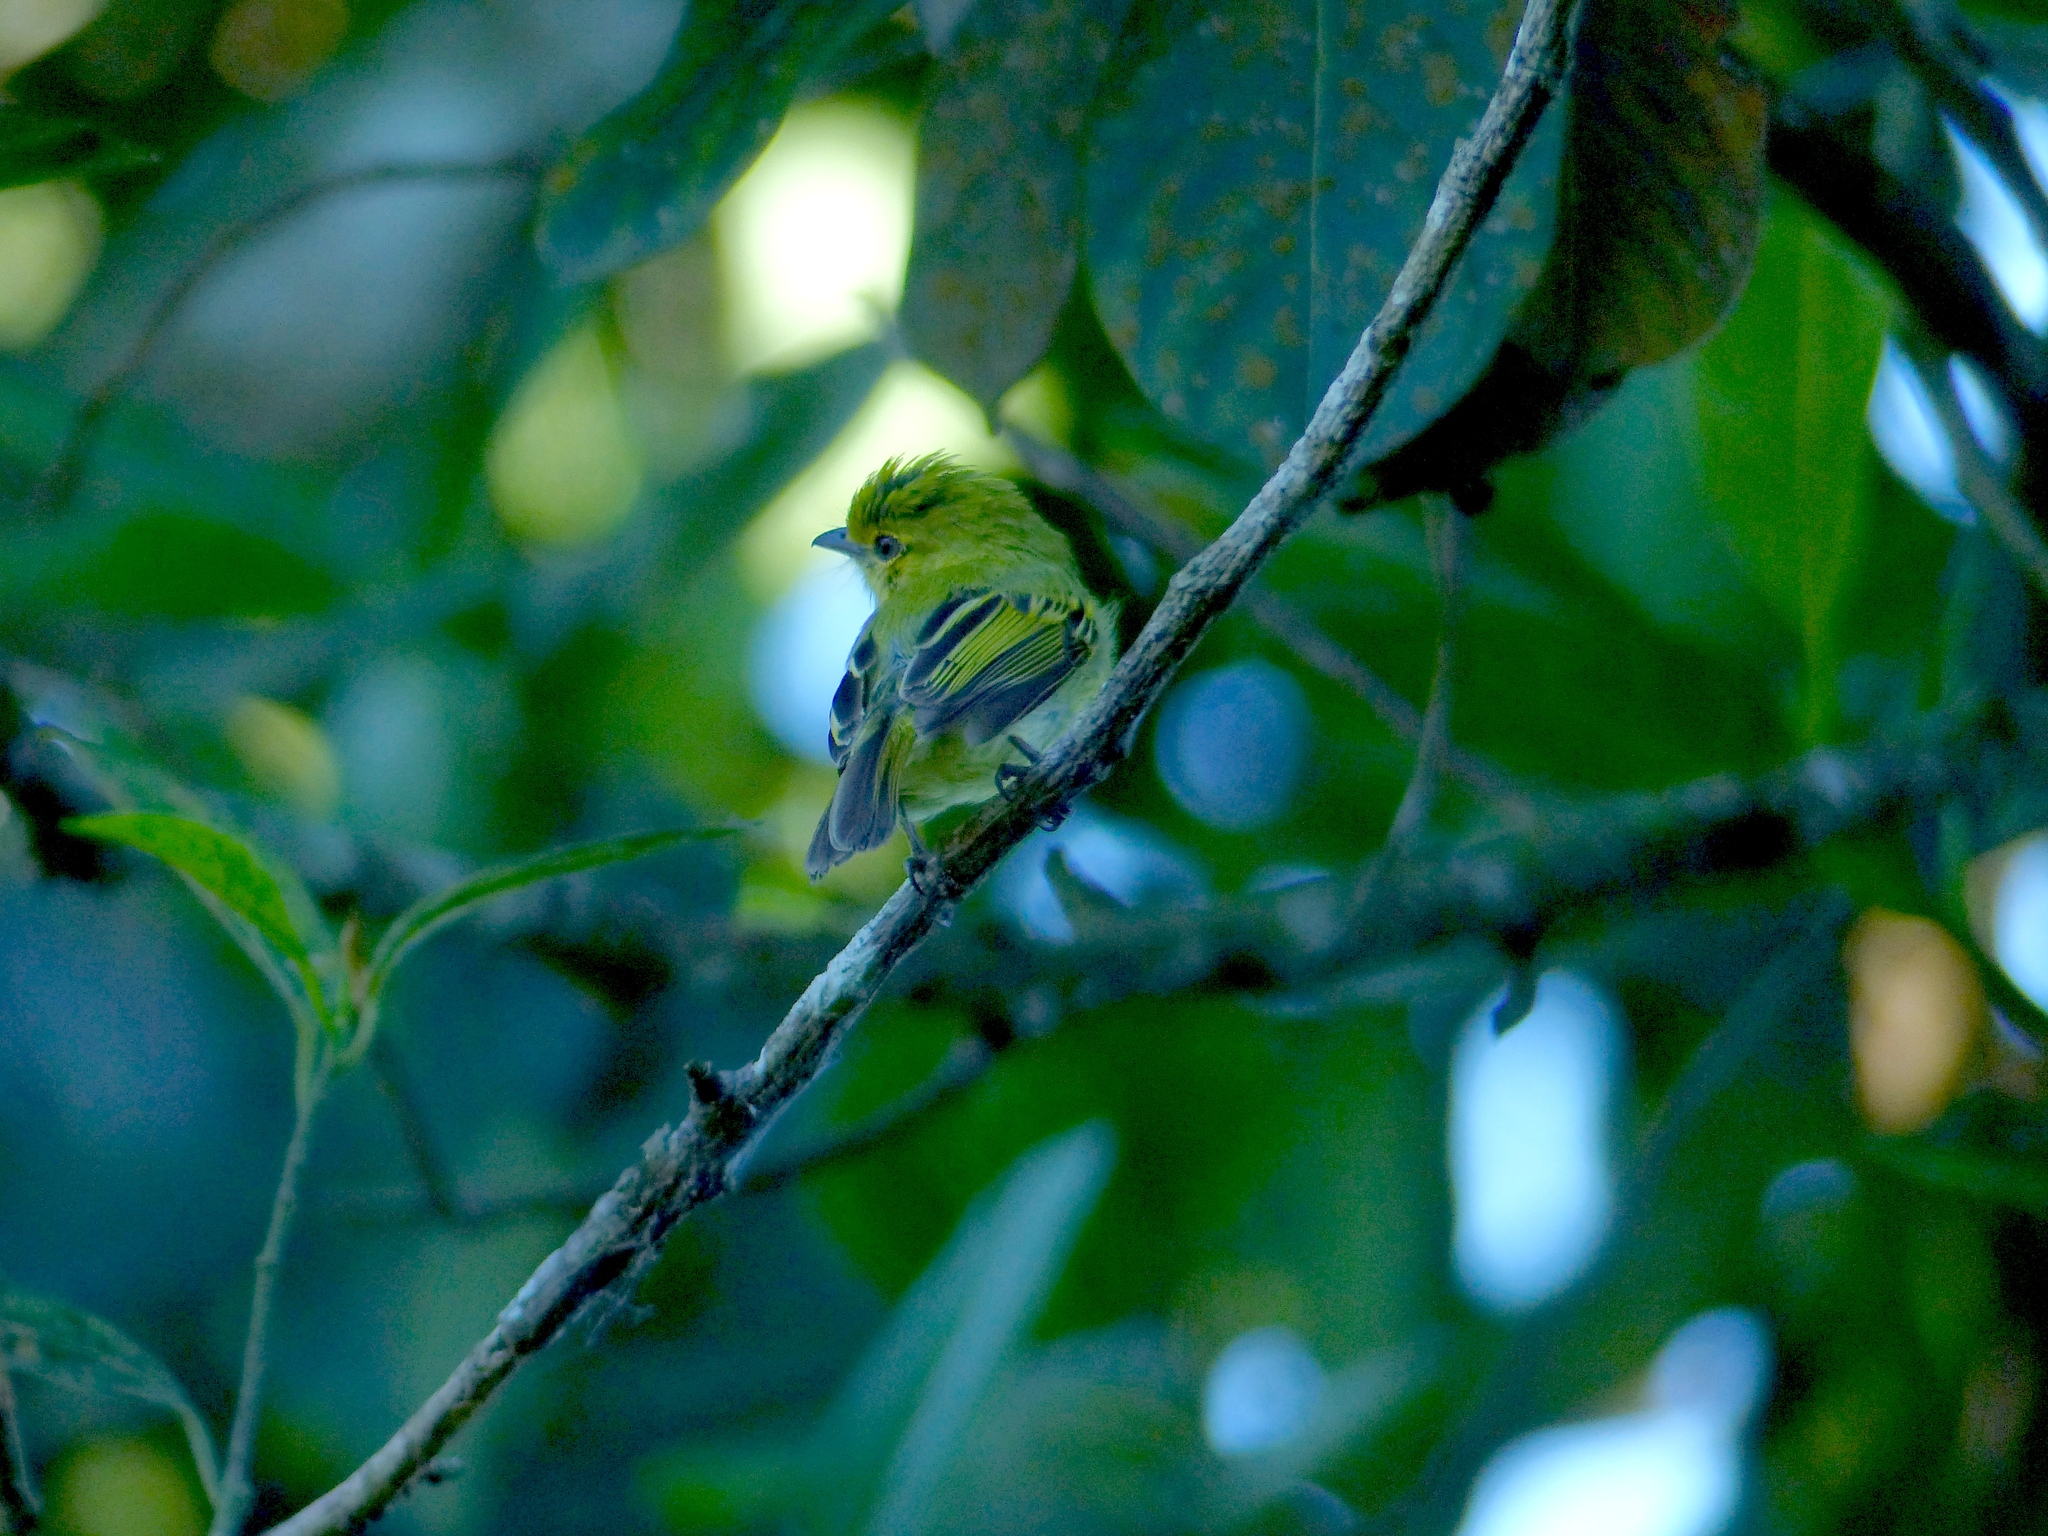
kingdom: Animalia
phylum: Chordata
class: Aves
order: Passeriformes
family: Tyrannidae
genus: Tolmomyias
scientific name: Tolmomyias flaviventris
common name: Ochre-lored flatbill
